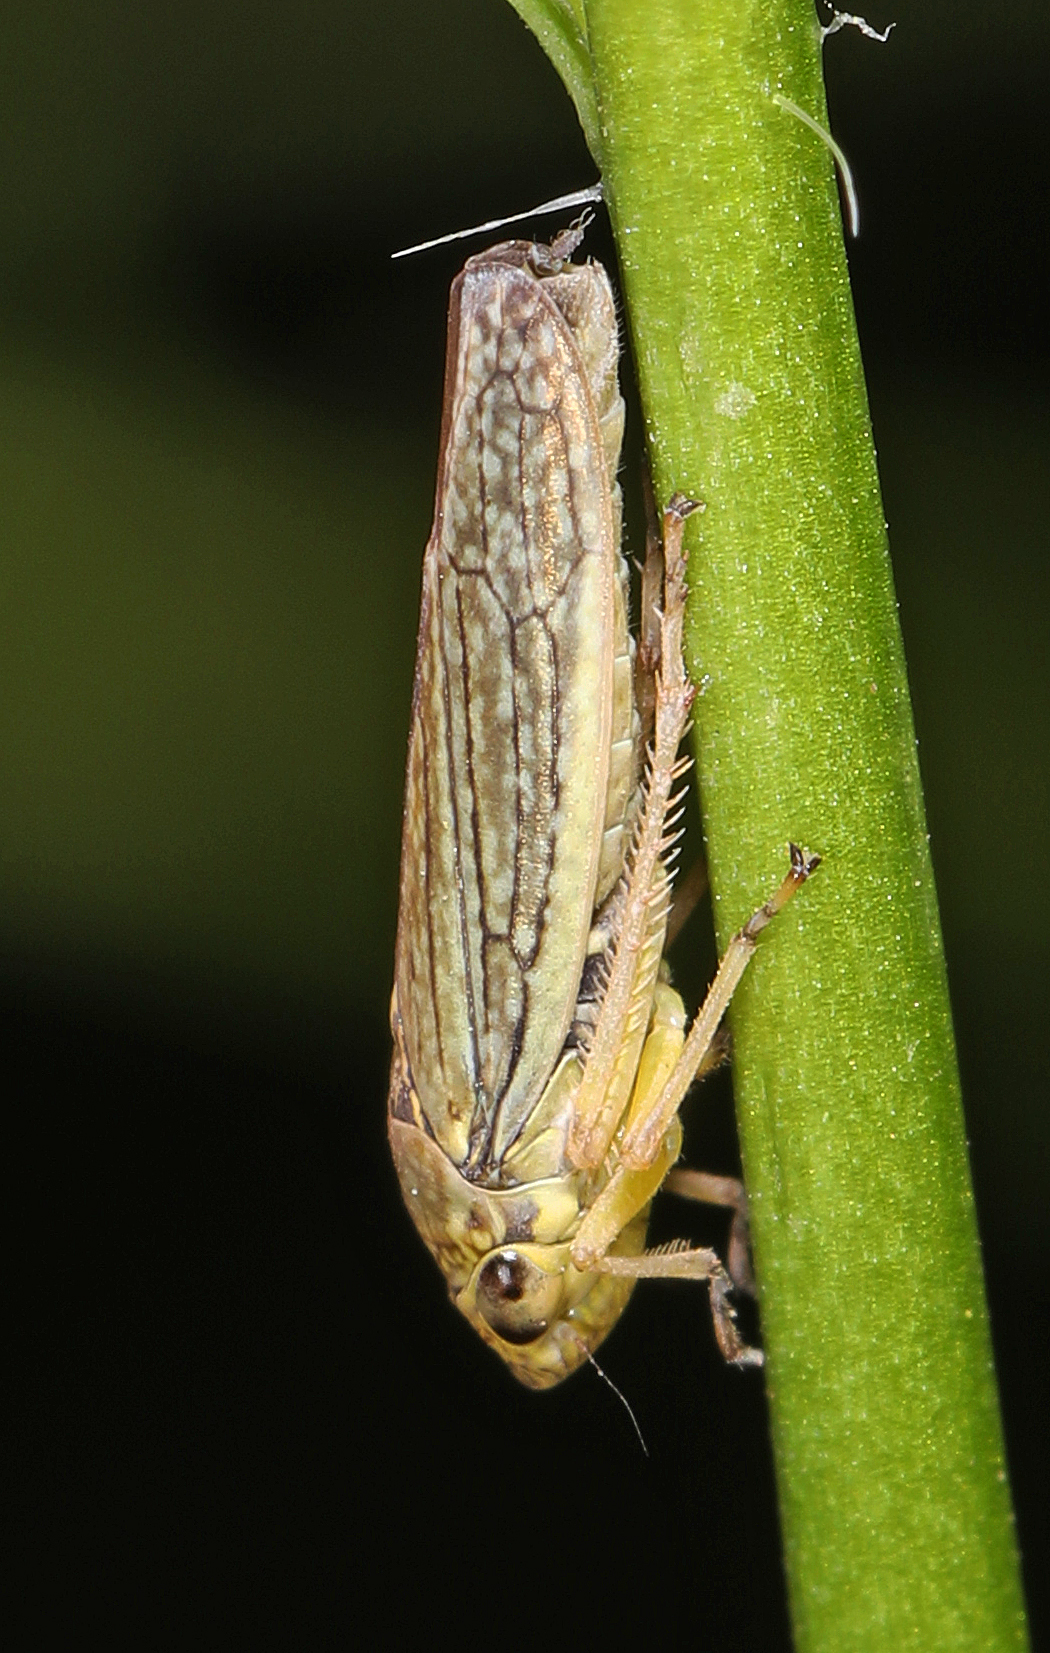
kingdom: Animalia
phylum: Arthropoda
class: Insecta
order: Hemiptera
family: Cicadellidae
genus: Graphocephala
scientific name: Graphocephala confluens
